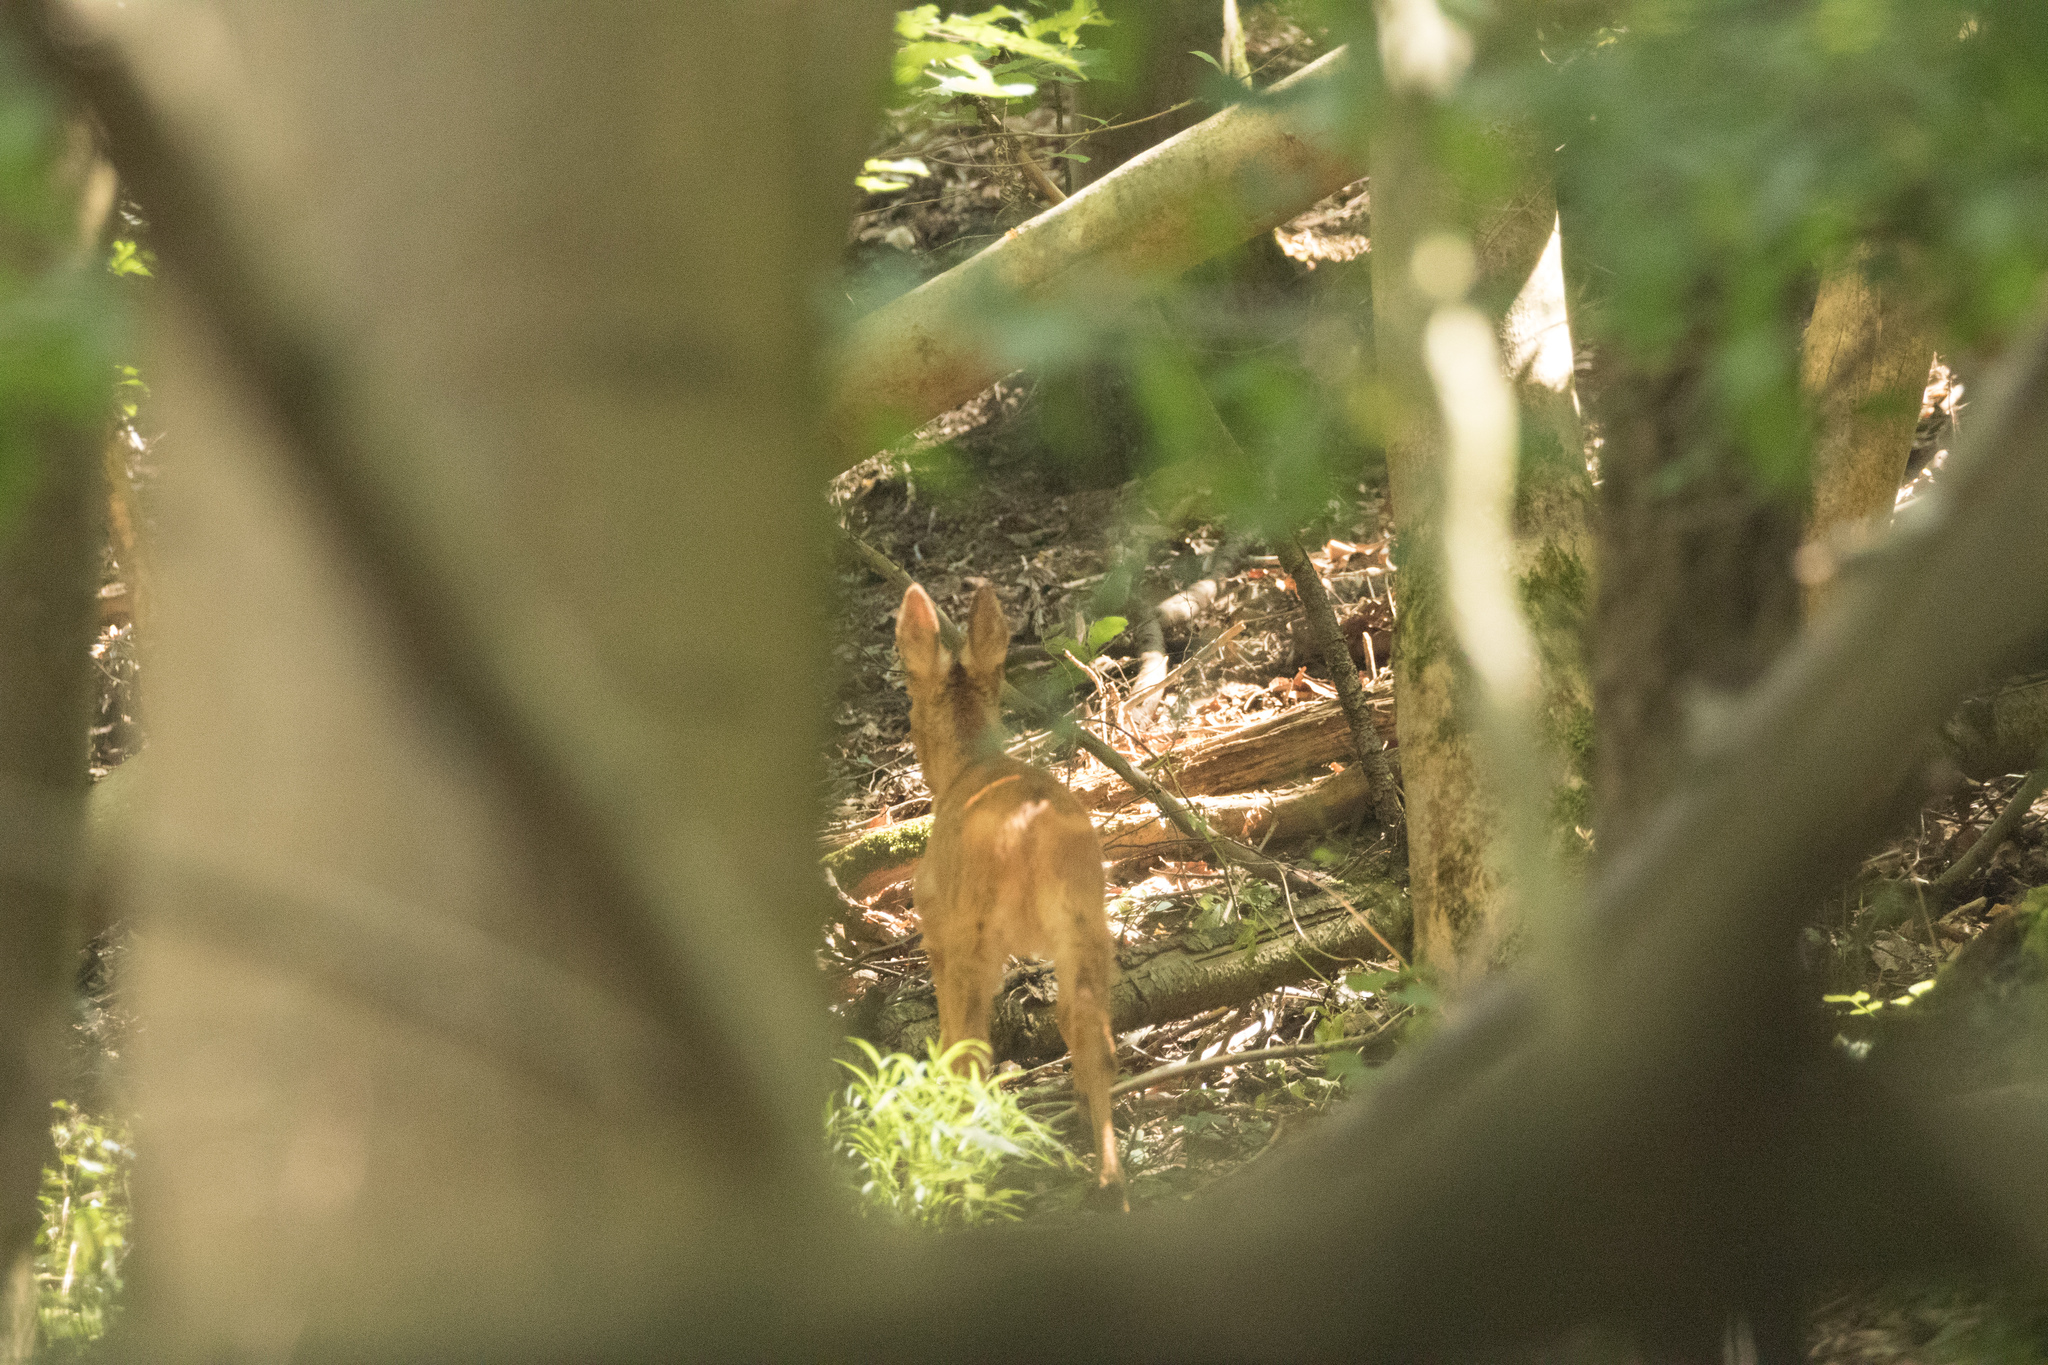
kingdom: Animalia
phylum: Chordata
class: Mammalia
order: Artiodactyla
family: Cervidae
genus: Capreolus
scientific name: Capreolus capreolus
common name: Western roe deer
